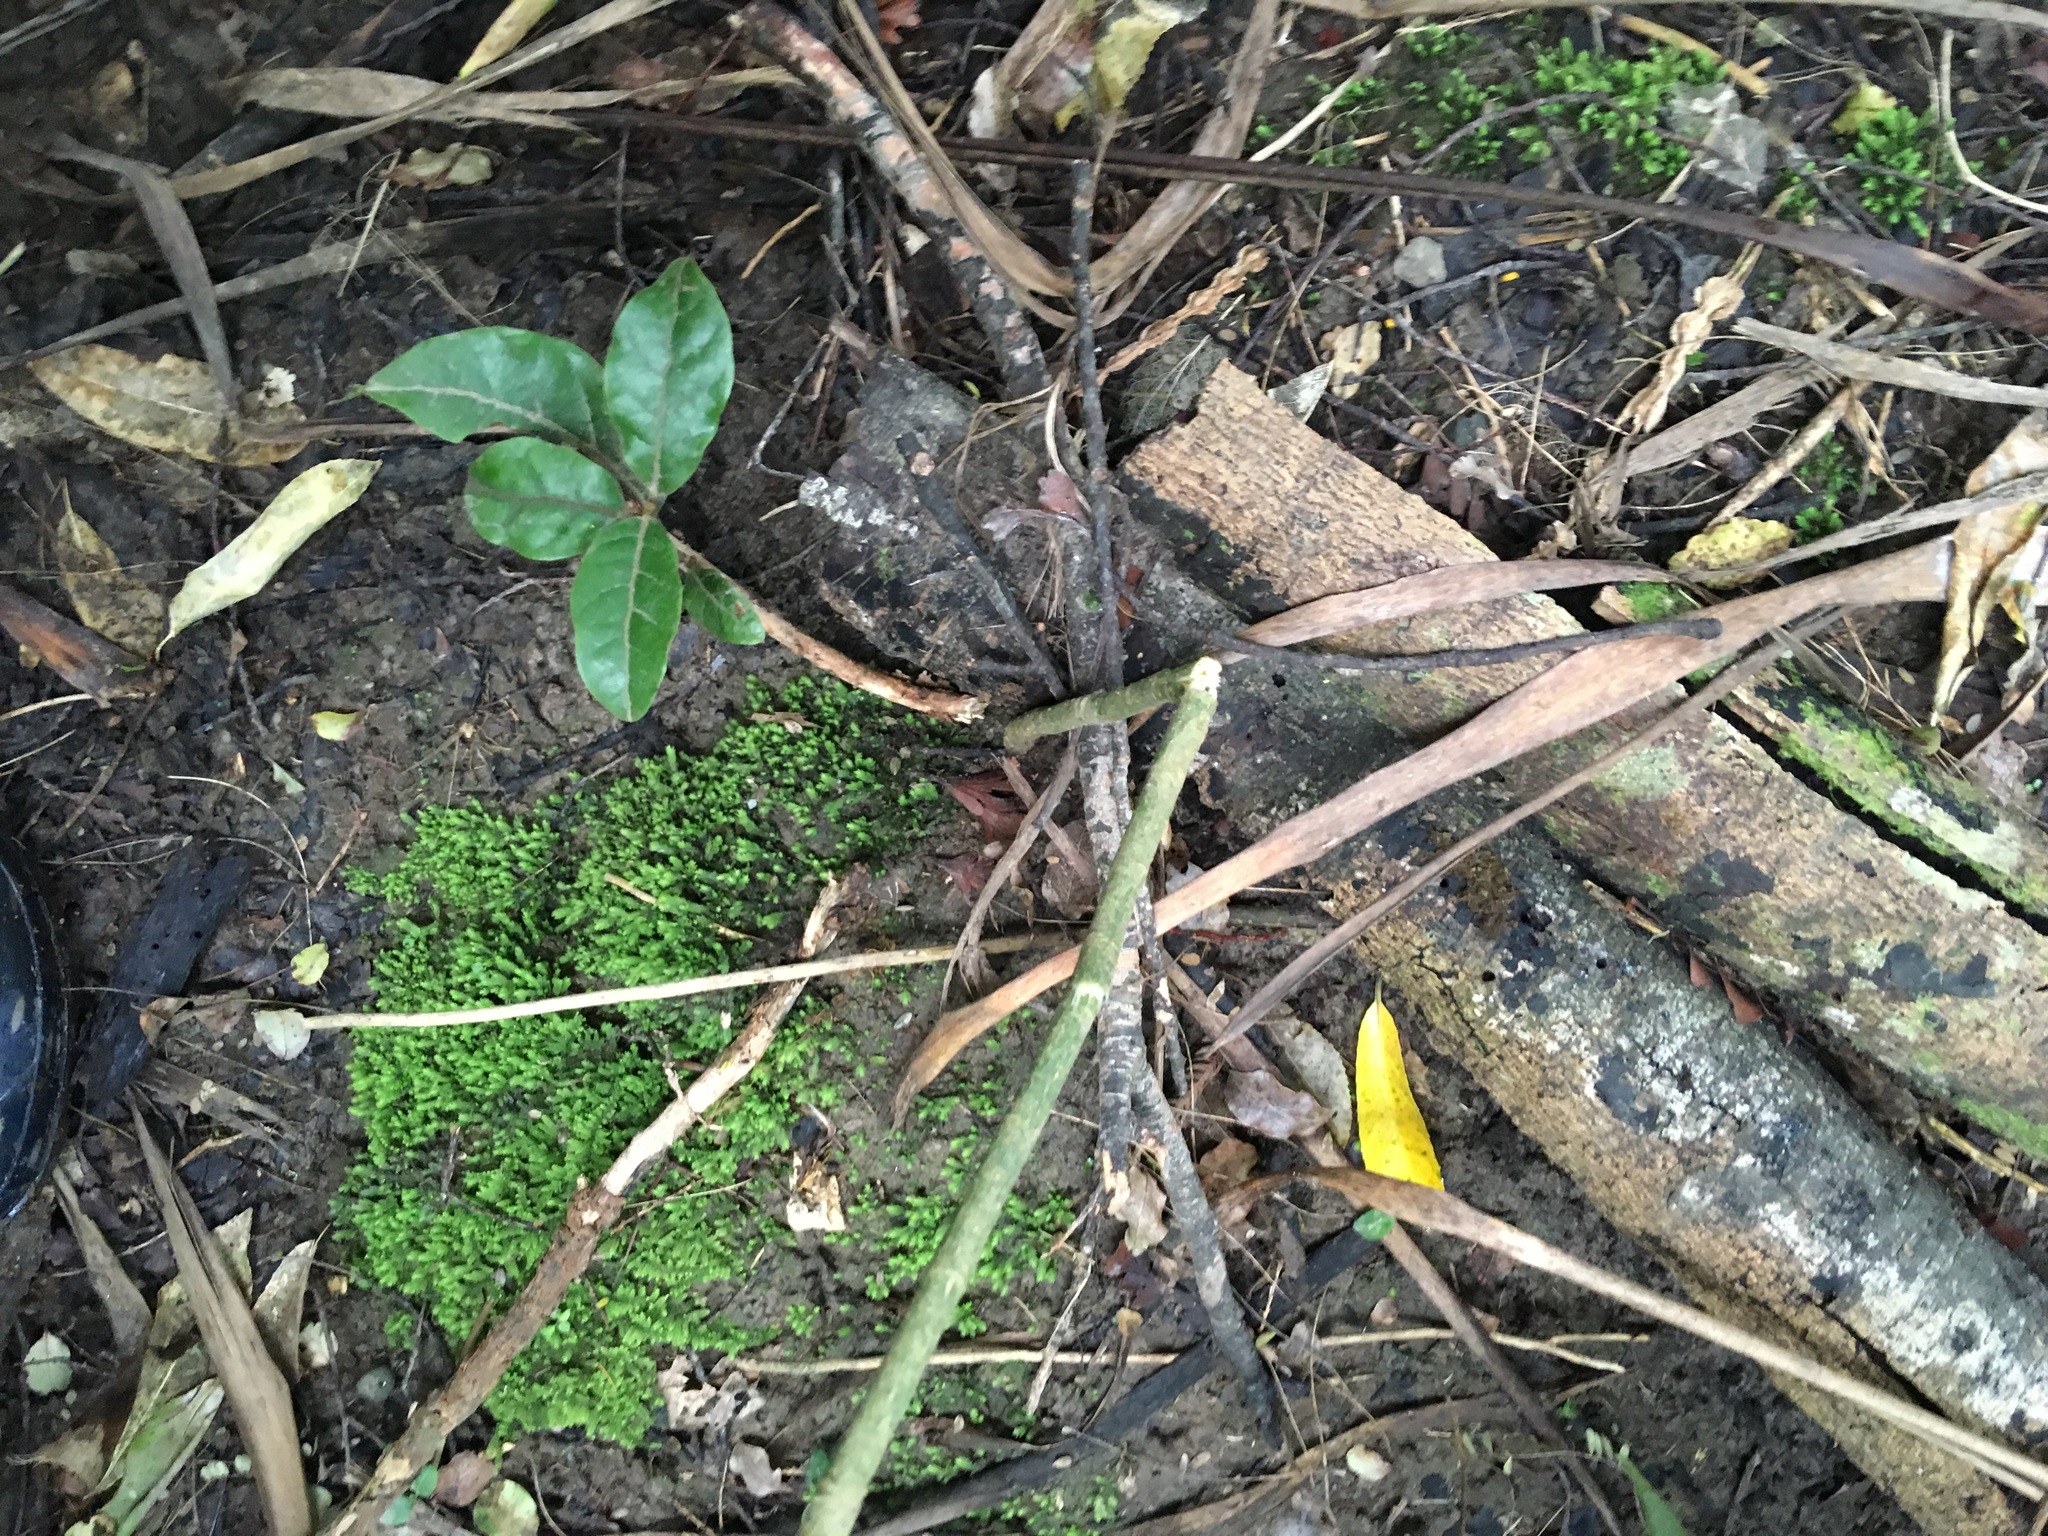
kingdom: Plantae
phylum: Tracheophyta
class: Magnoliopsida
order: Laurales
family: Lauraceae
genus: Beilschmiedia
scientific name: Beilschmiedia tarairi
